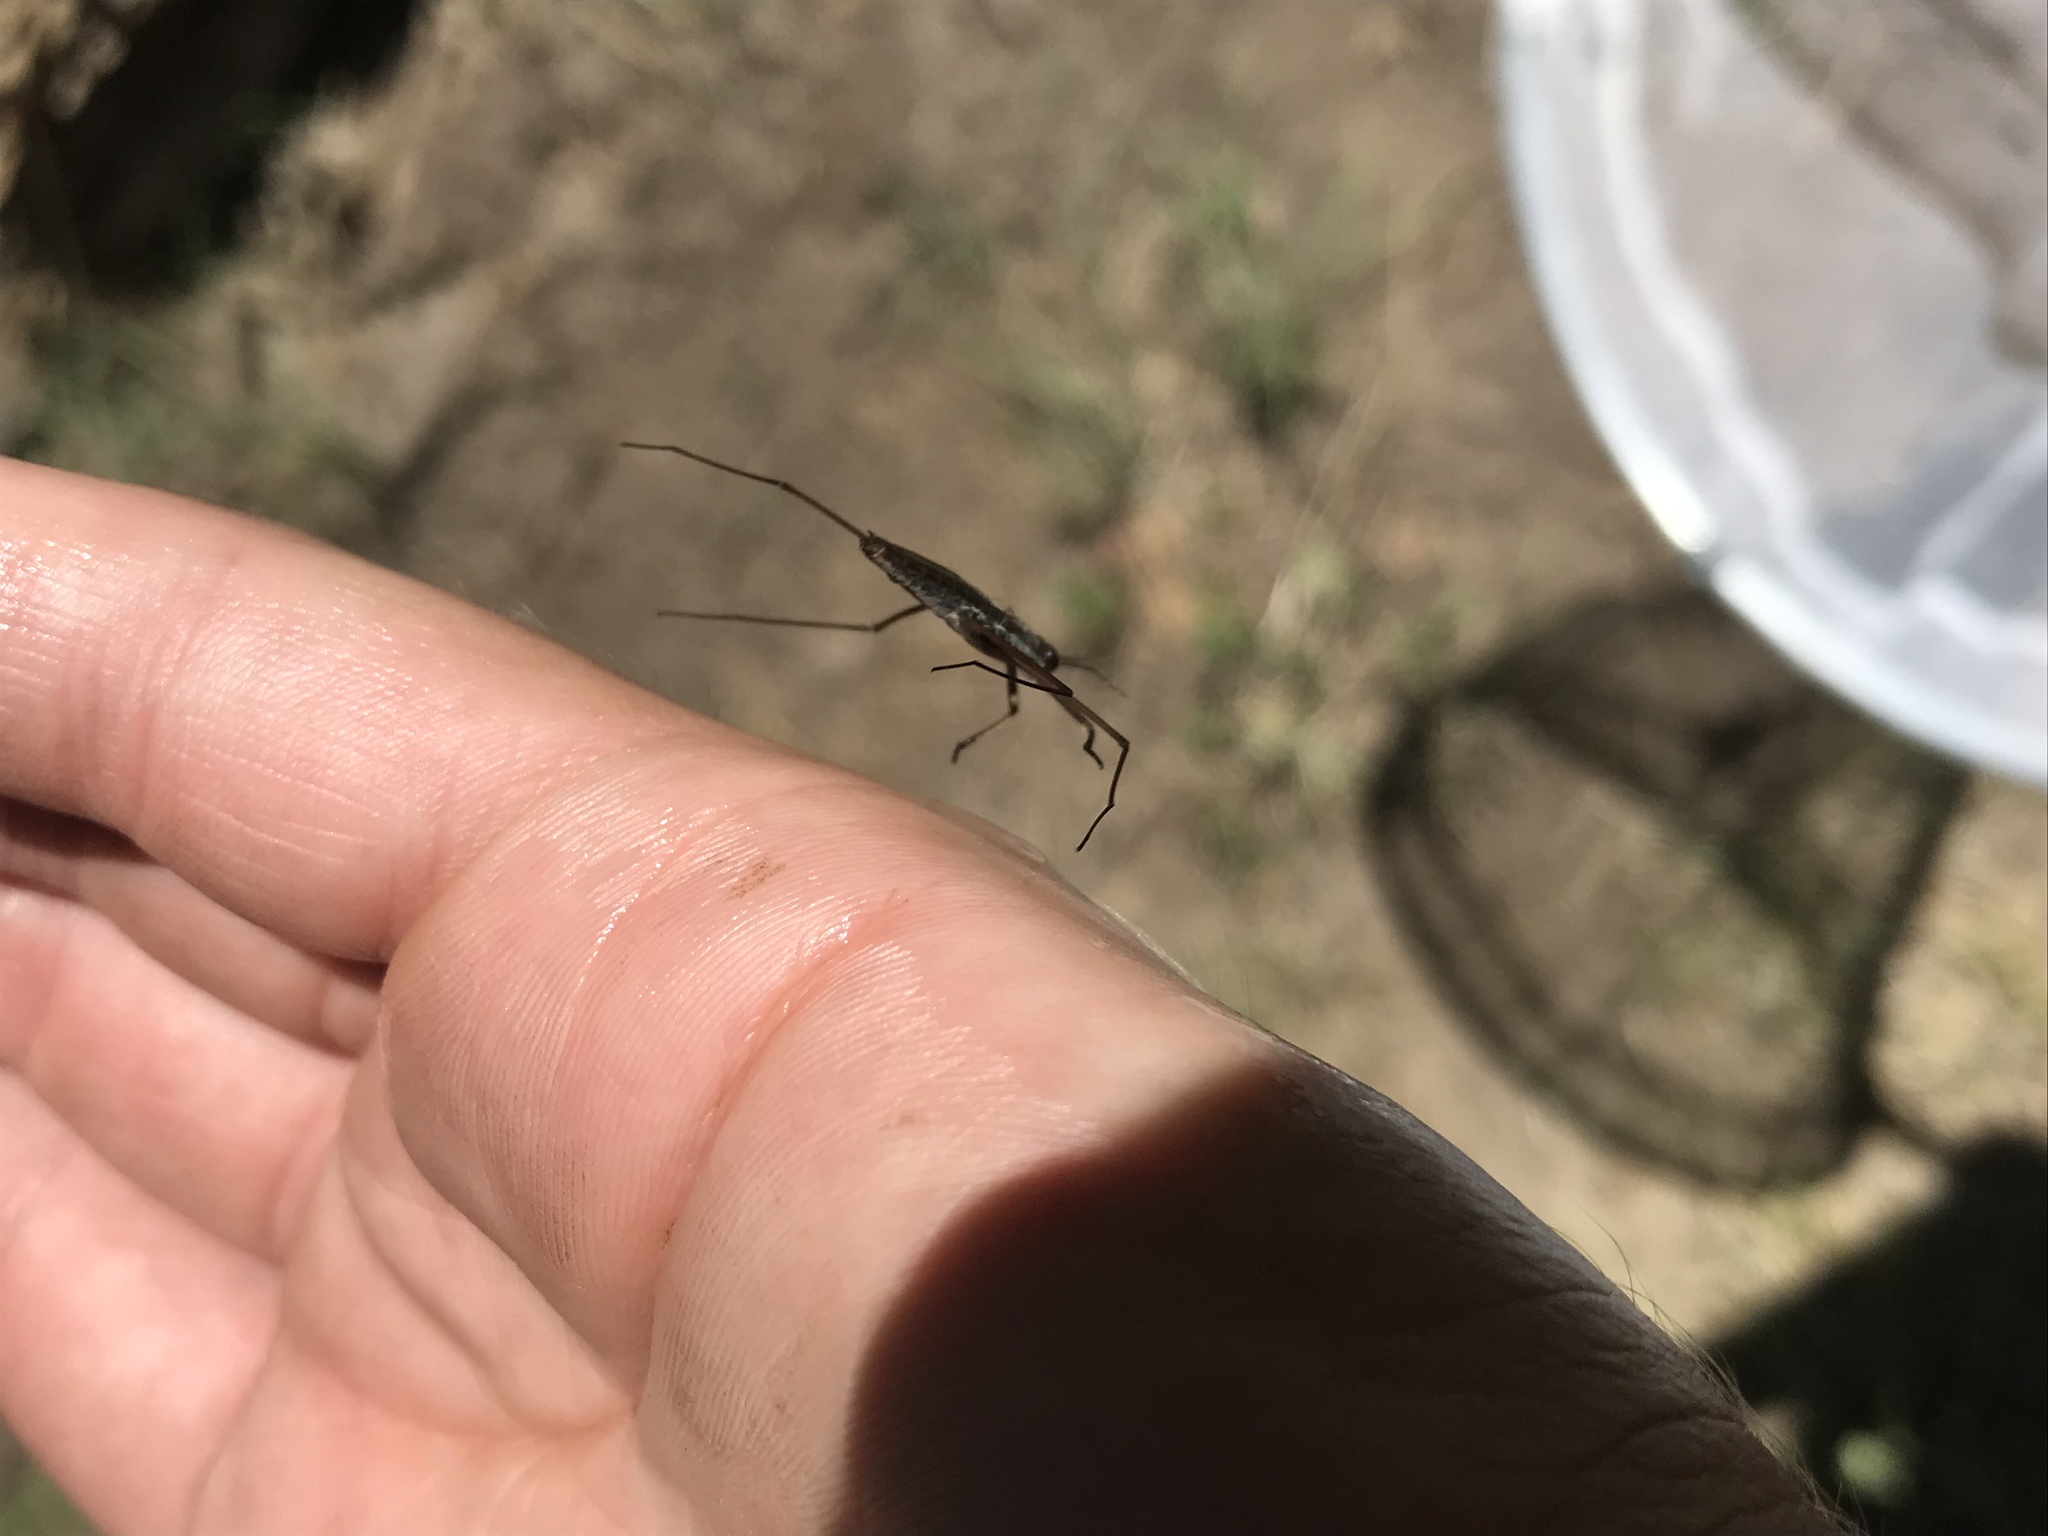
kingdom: Animalia
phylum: Arthropoda
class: Insecta
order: Hemiptera
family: Gerridae
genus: Aquarius
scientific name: Aquarius remigis
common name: Common water strider
